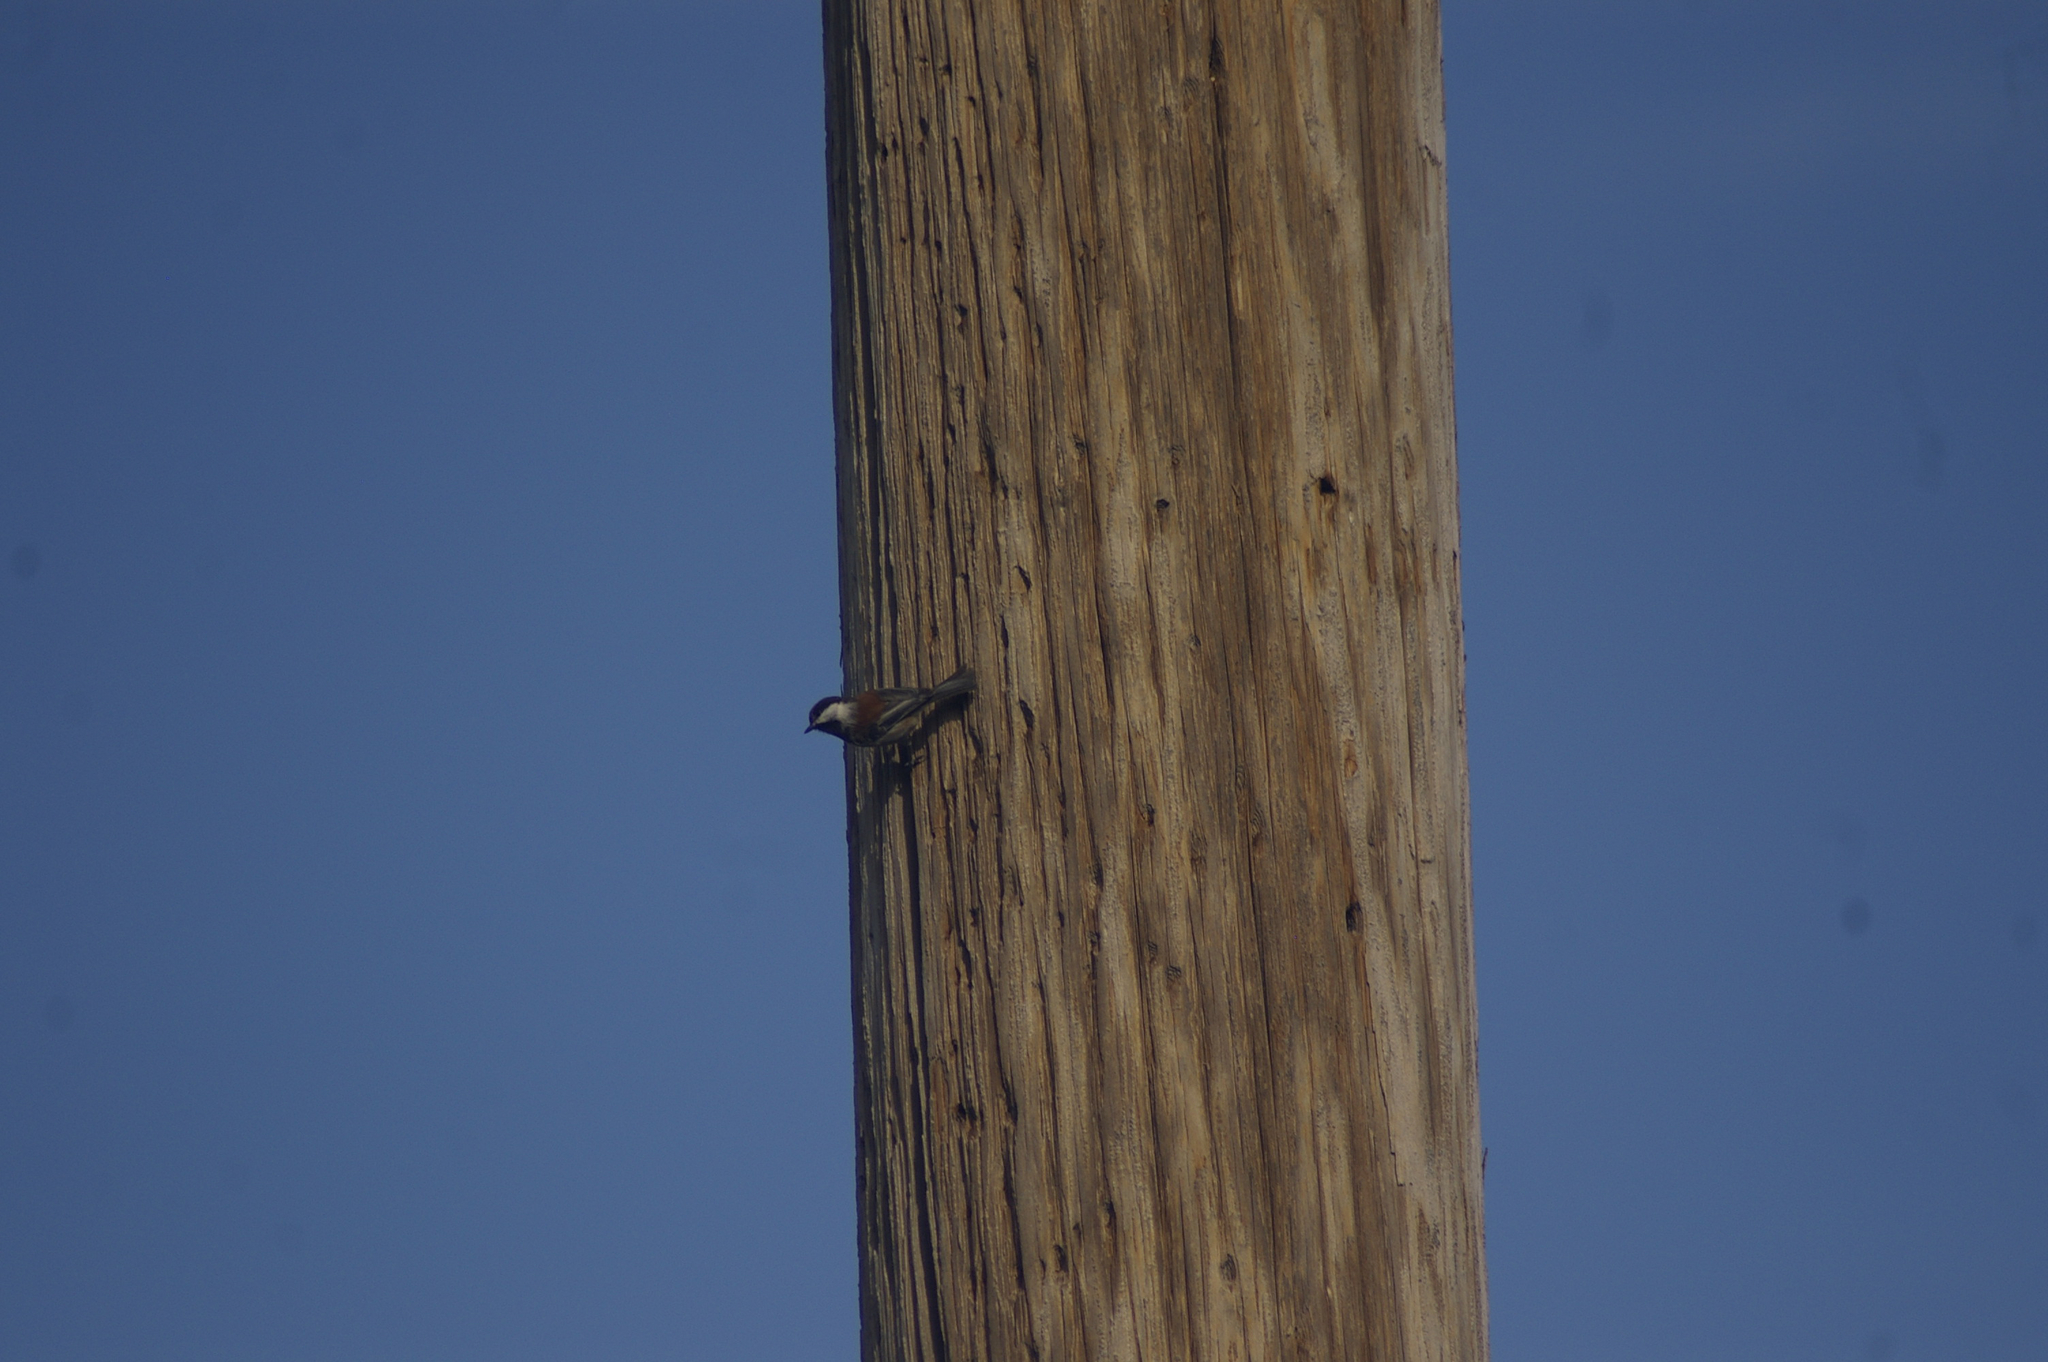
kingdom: Animalia
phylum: Chordata
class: Aves
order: Passeriformes
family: Paridae
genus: Poecile
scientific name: Poecile rufescens
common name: Chestnut-backed chickadee
